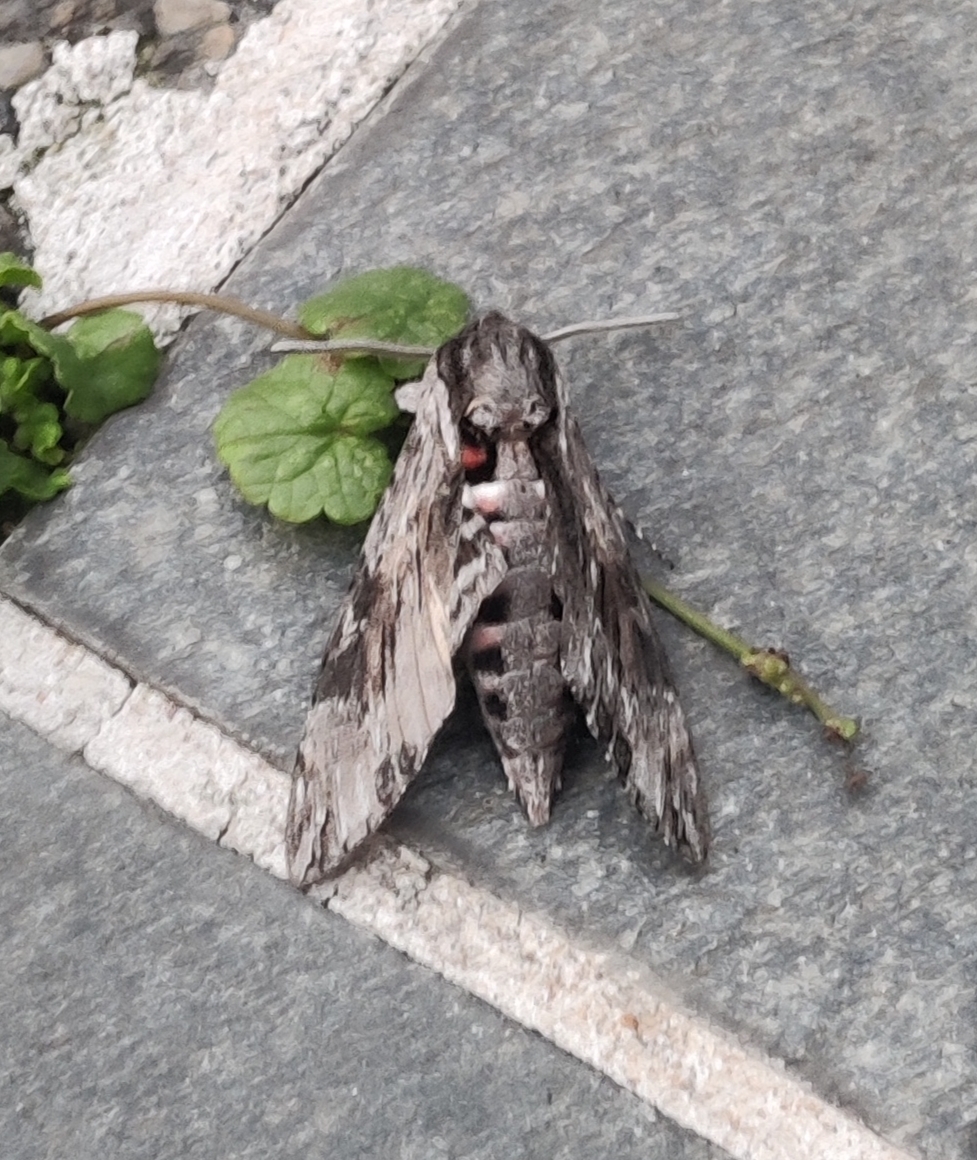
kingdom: Animalia
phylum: Arthropoda
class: Insecta
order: Lepidoptera
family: Sphingidae
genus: Agrius
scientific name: Agrius convolvuli
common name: Convolvulus hawkmoth
